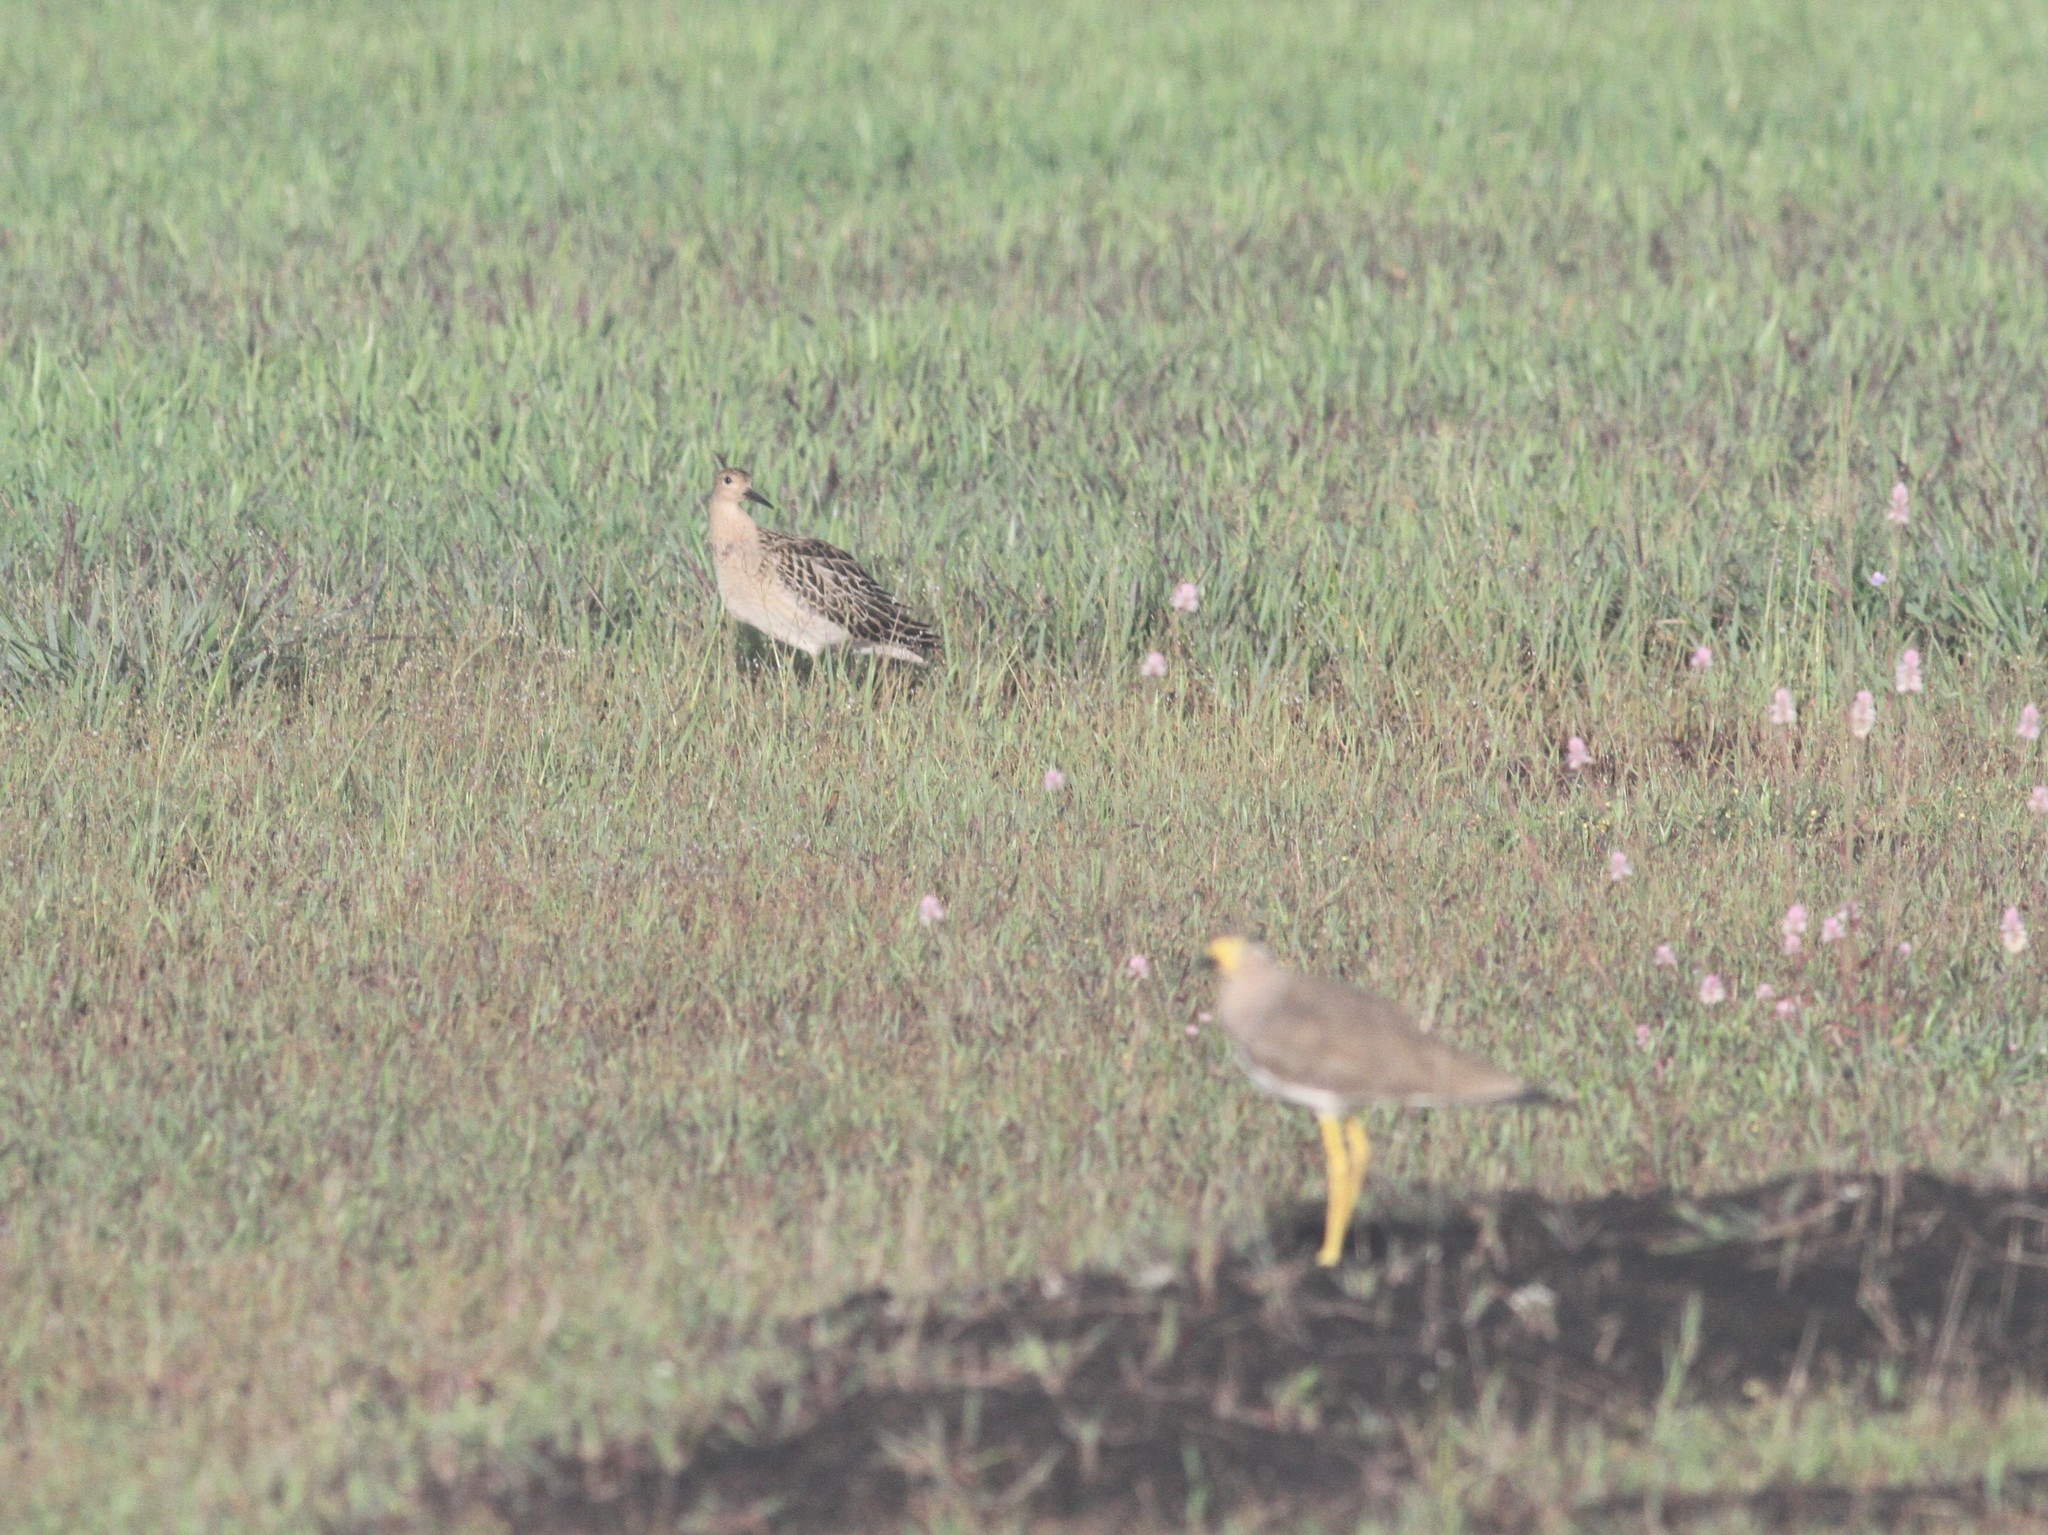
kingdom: Animalia
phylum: Chordata
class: Aves
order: Charadriiformes
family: Scolopacidae
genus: Calidris
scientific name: Calidris pugnax
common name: Ruff
